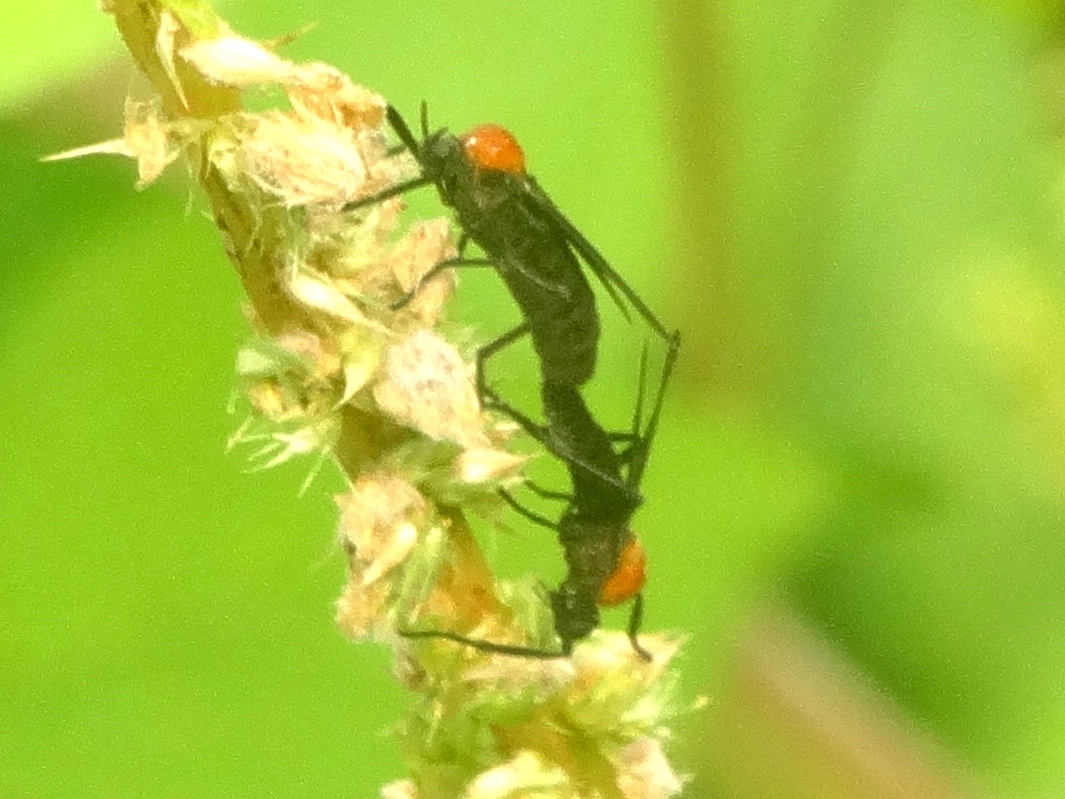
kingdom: Animalia
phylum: Arthropoda
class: Insecta
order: Diptera
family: Bibionidae
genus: Plecia
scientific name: Plecia
